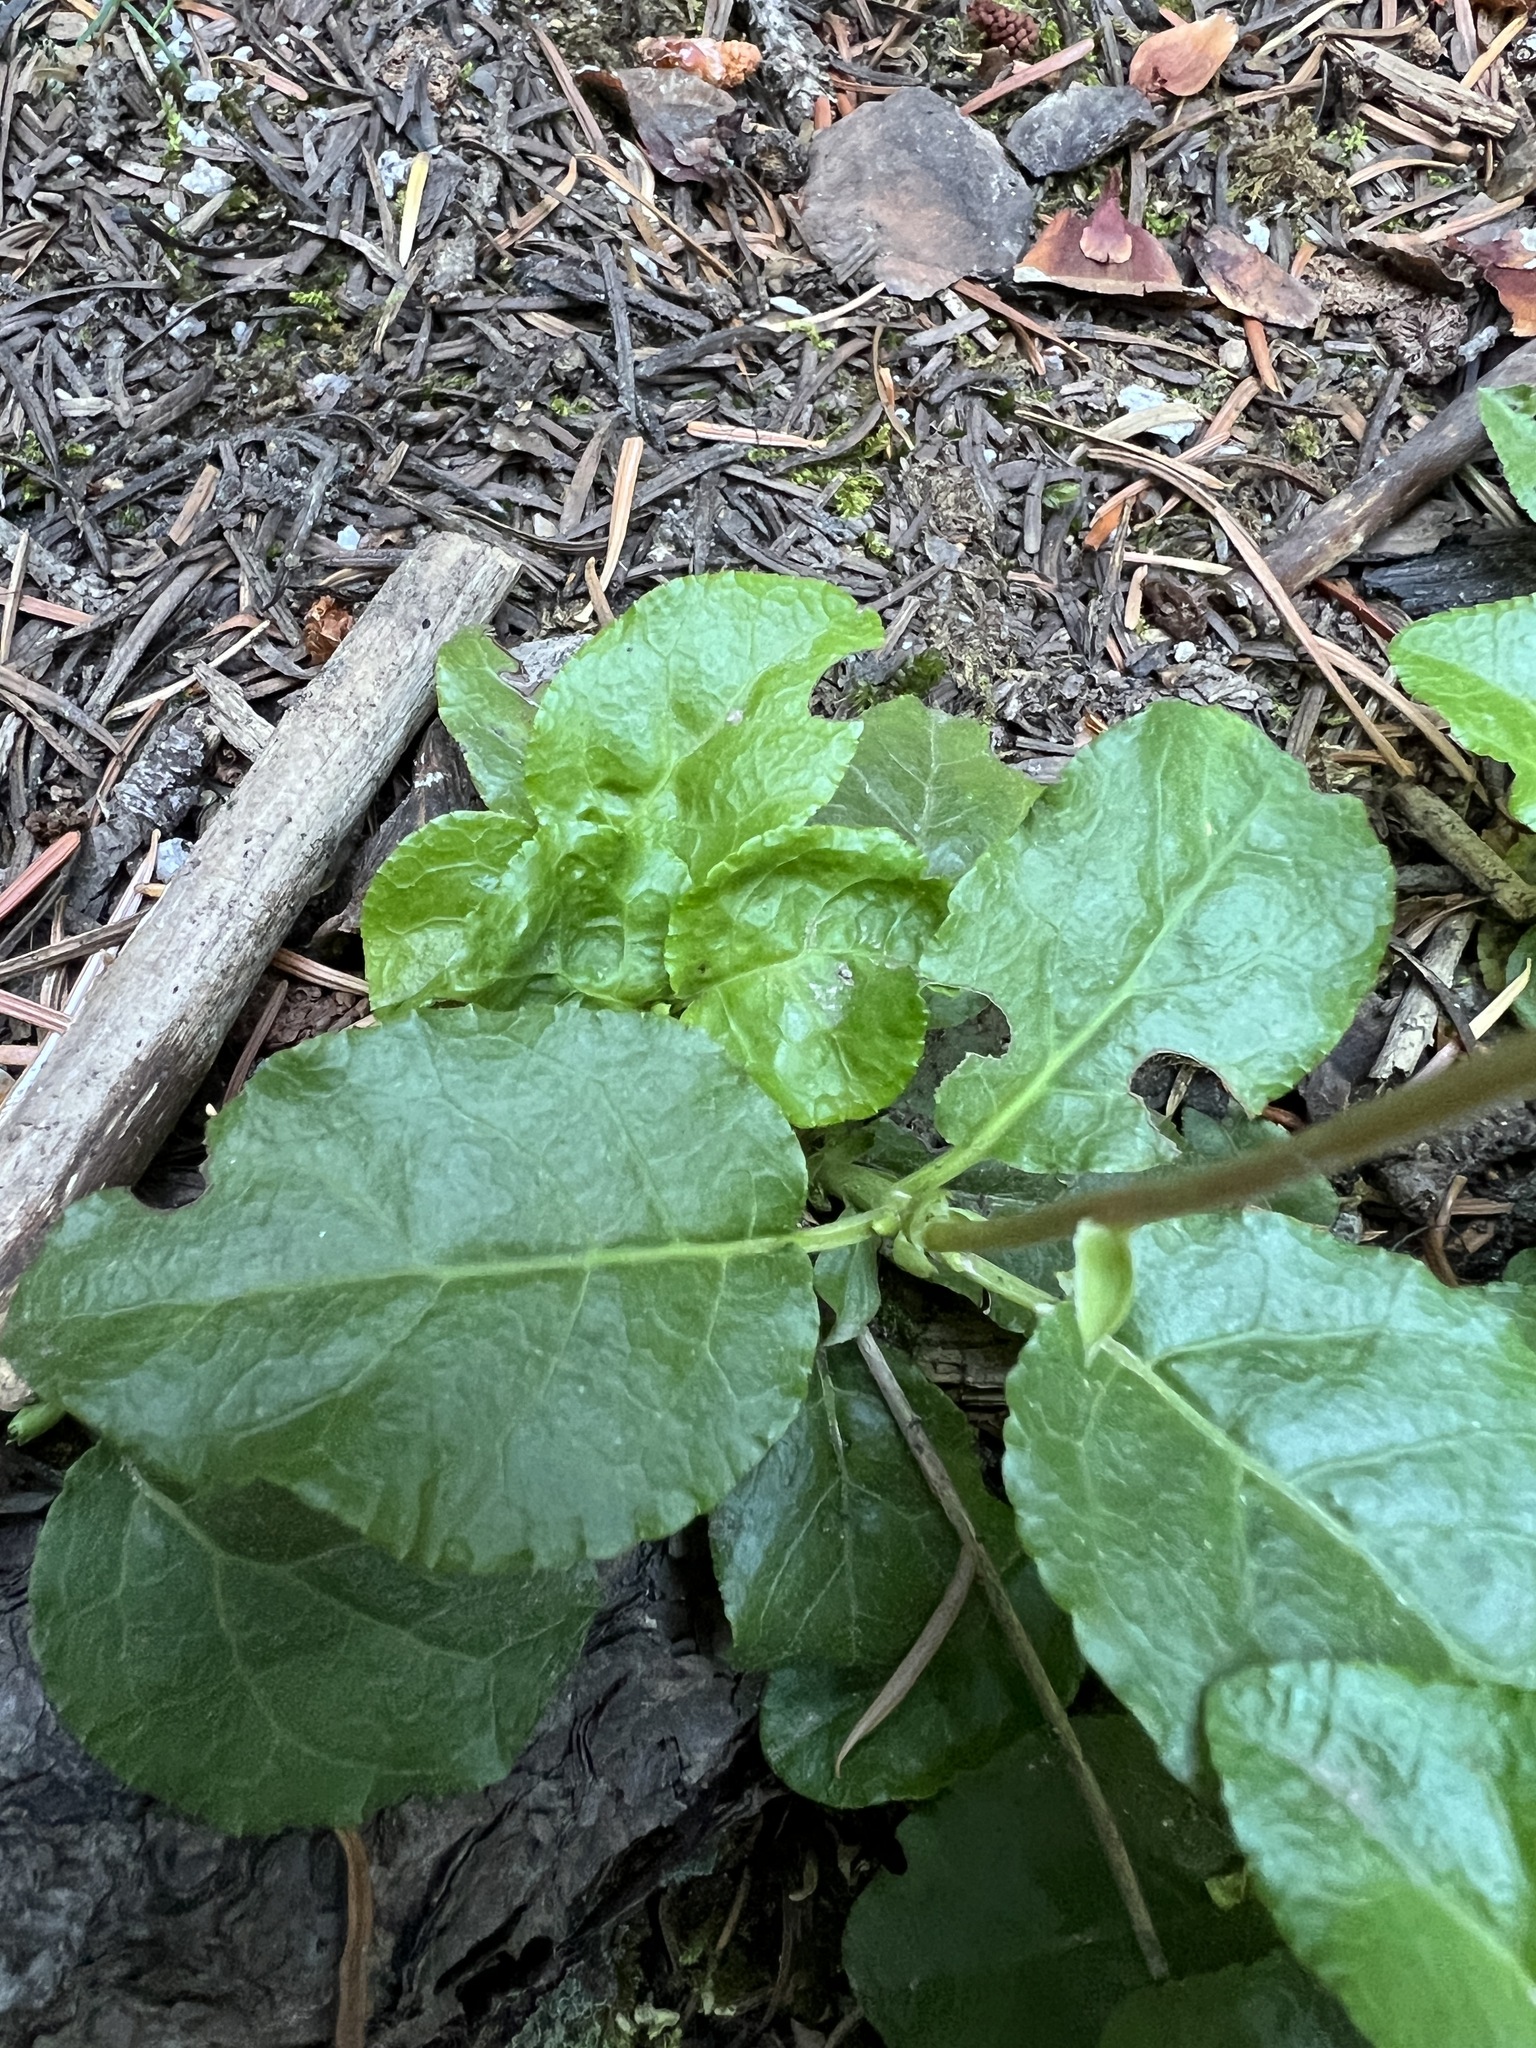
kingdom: Plantae
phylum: Tracheophyta
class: Magnoliopsida
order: Ericales
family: Ericaceae
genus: Orthilia
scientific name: Orthilia secunda
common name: One-sided orthilia
